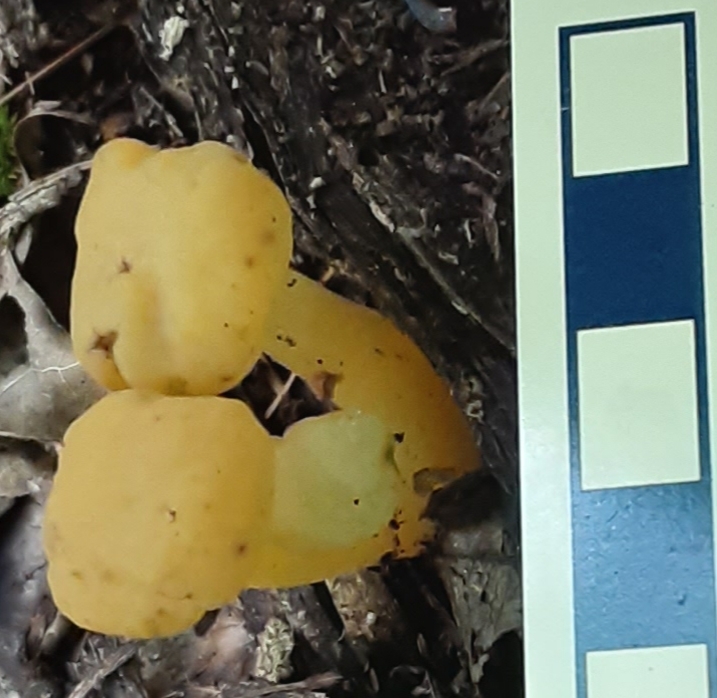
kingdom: Fungi
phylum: Ascomycota
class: Leotiomycetes
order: Leotiales
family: Leotiaceae
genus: Leotia
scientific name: Leotia lubrica
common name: Jellybaby
